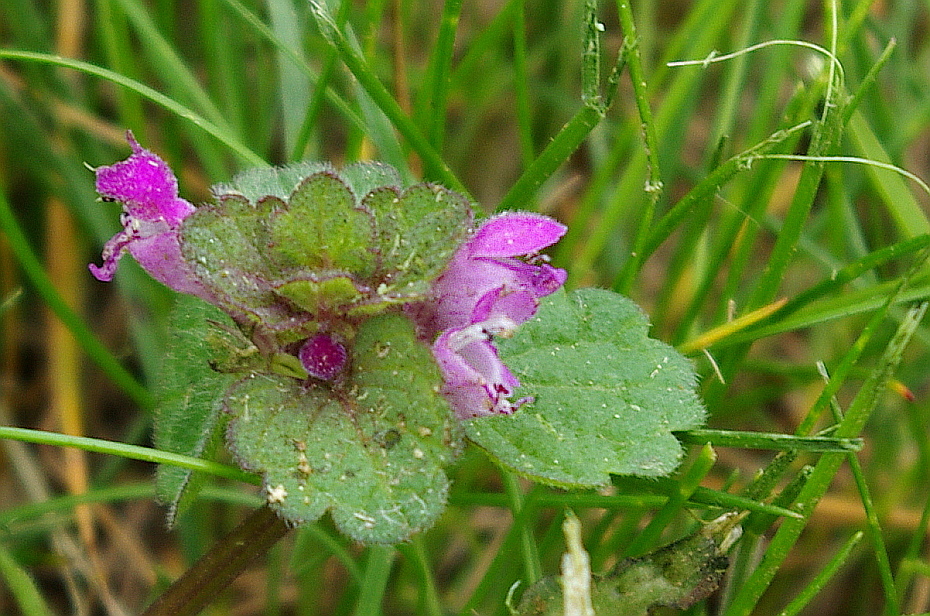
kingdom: Plantae
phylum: Tracheophyta
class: Magnoliopsida
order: Lamiales
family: Lamiaceae
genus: Lamium
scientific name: Lamium purpureum
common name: Red dead-nettle
